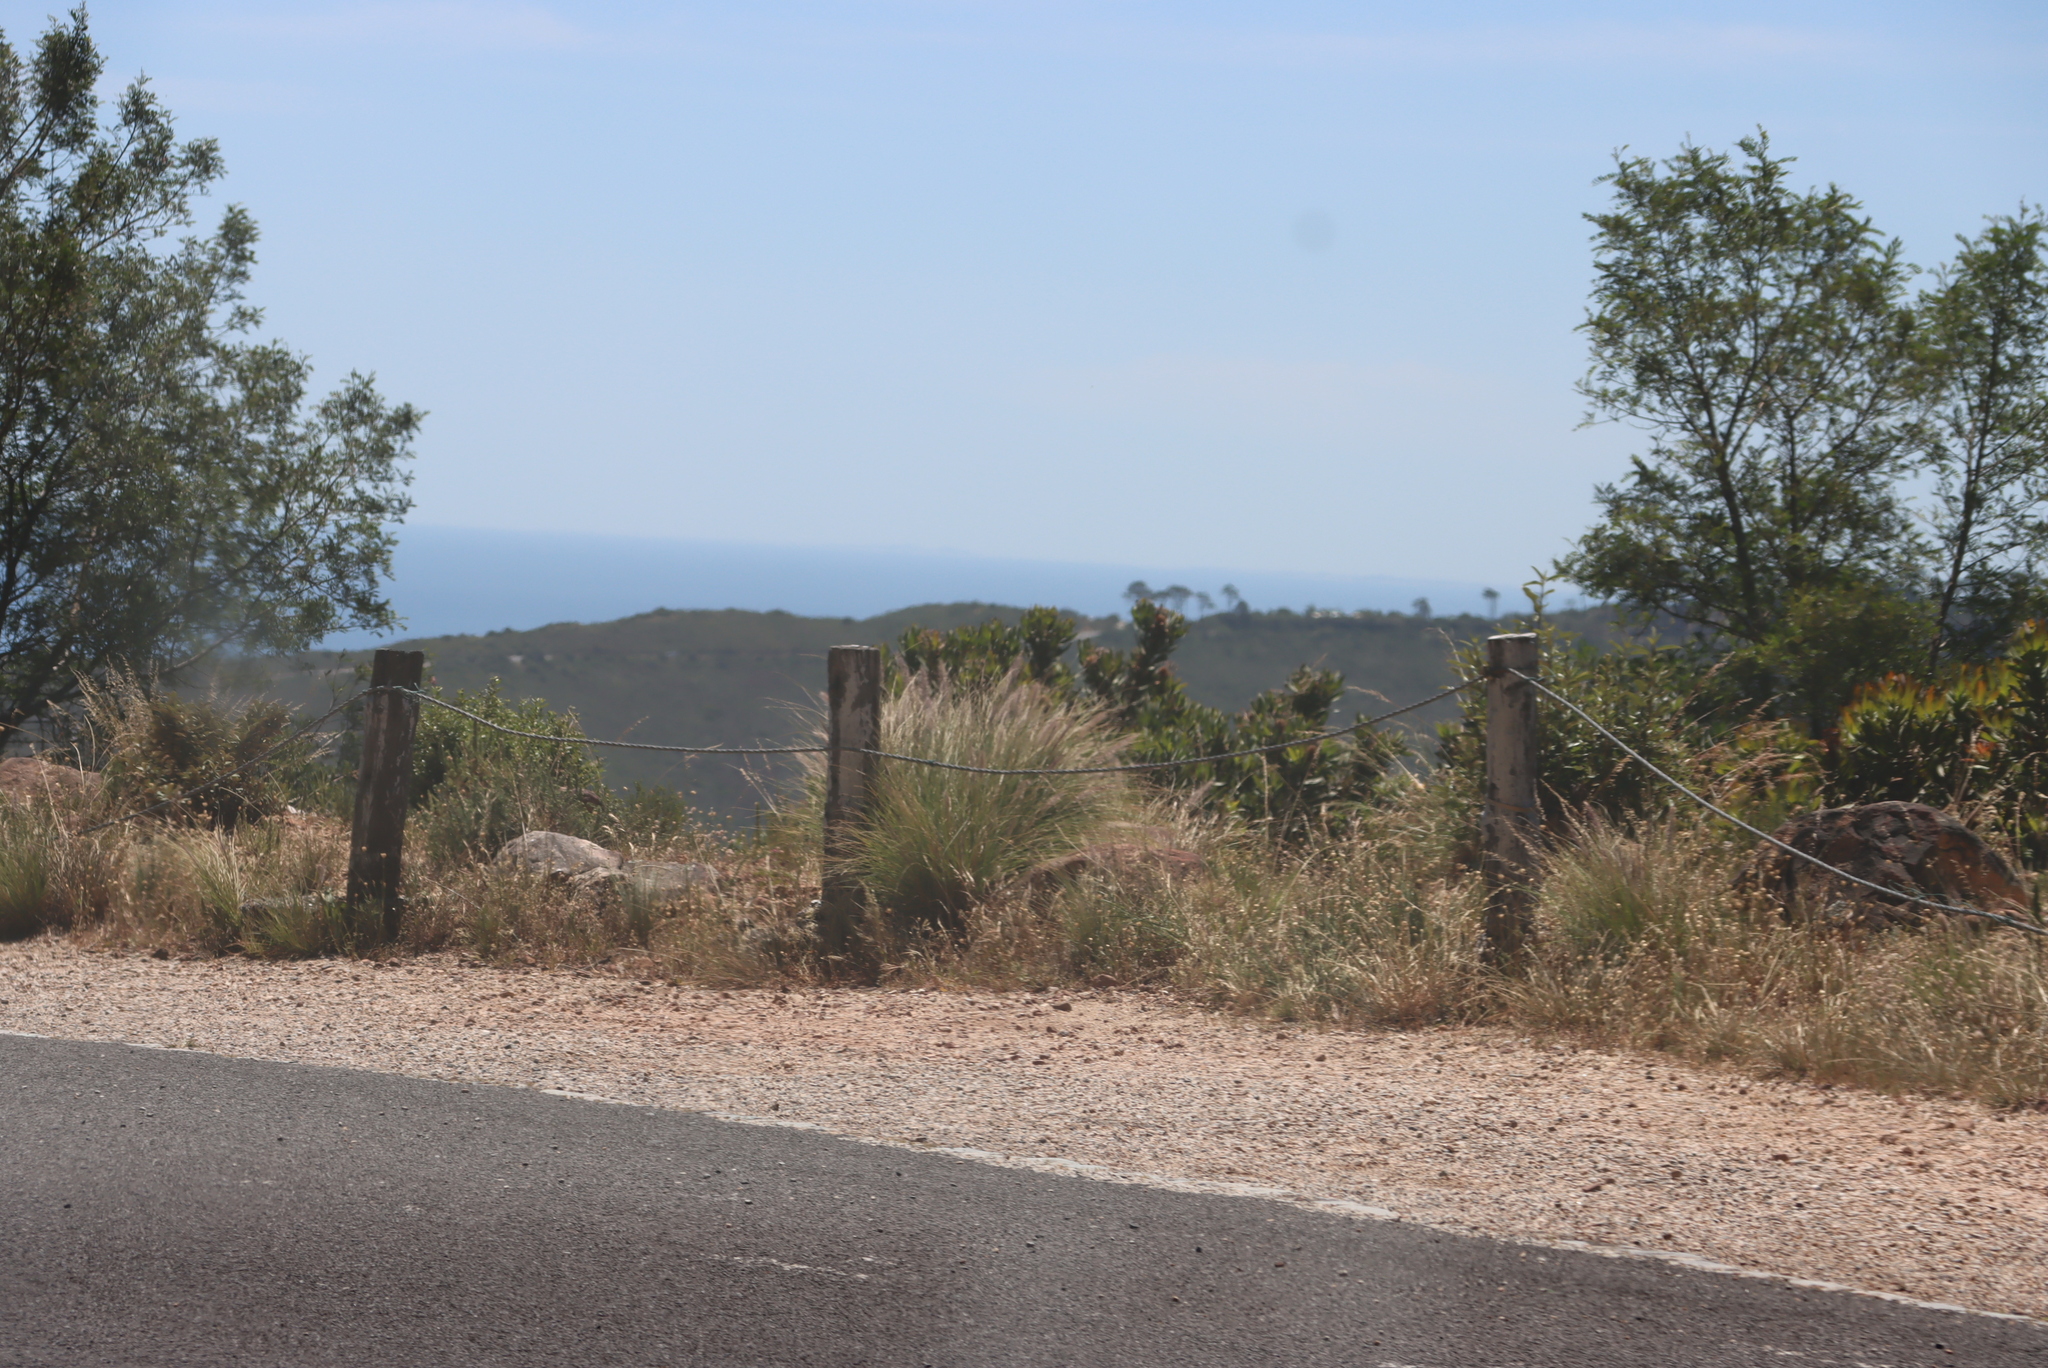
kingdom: Plantae
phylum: Tracheophyta
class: Liliopsida
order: Poales
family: Poaceae
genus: Cenchrus
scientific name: Cenchrus setaceus
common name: Crimson fountaingrass
